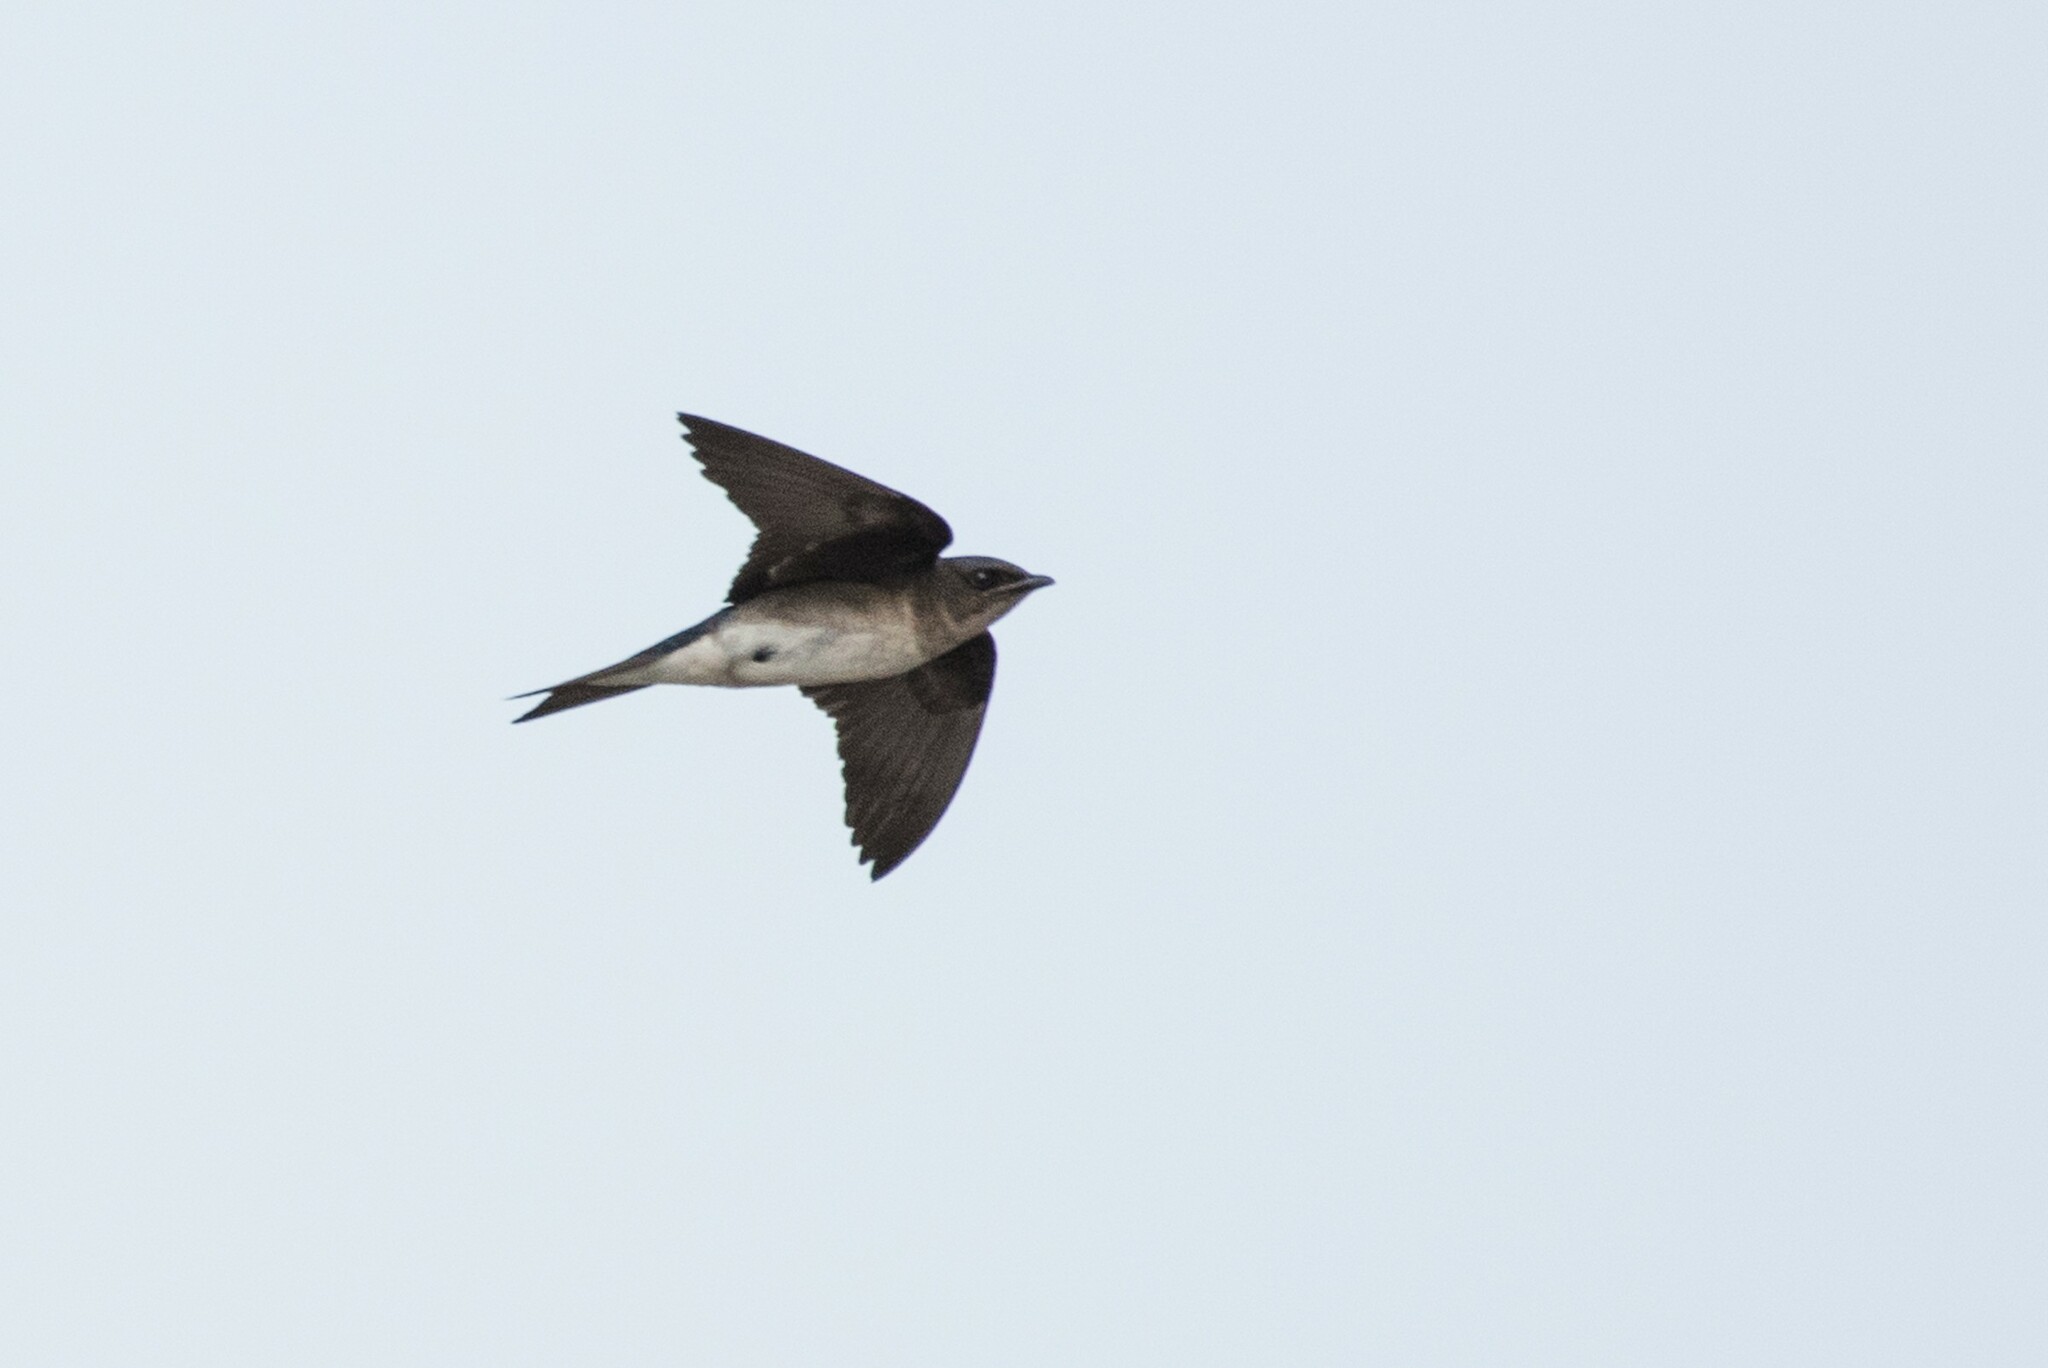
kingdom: Animalia
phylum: Chordata
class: Aves
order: Passeriformes
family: Hirundinidae
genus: Progne
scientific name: Progne chalybea
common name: Grey-breasted martin
